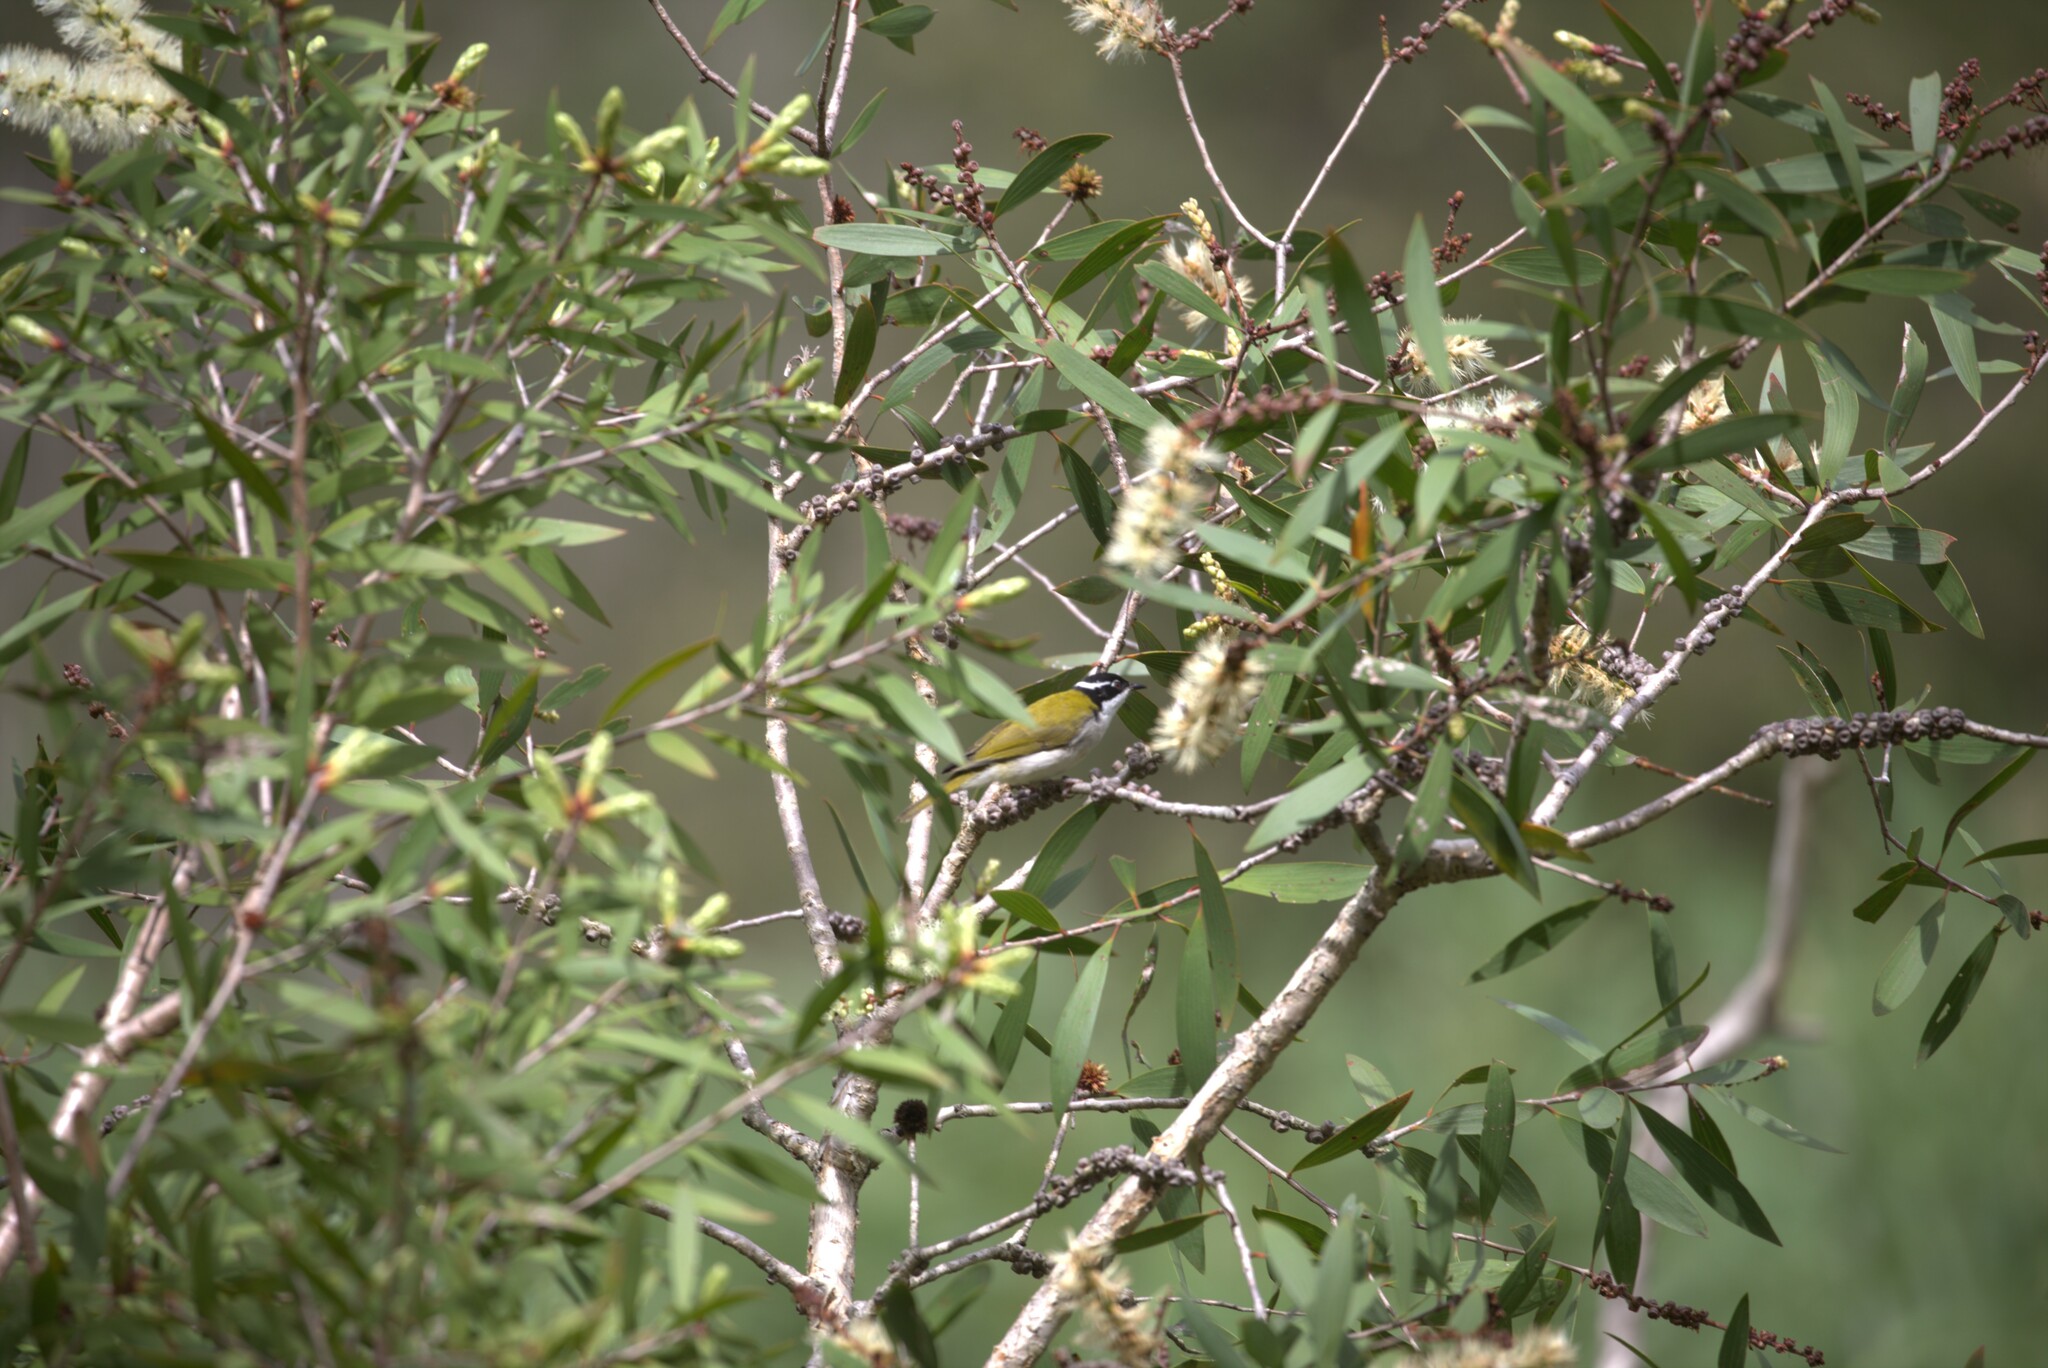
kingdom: Animalia
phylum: Chordata
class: Aves
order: Passeriformes
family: Meliphagidae
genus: Melithreptus
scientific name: Melithreptus albogularis
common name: White-throated honeyeater
